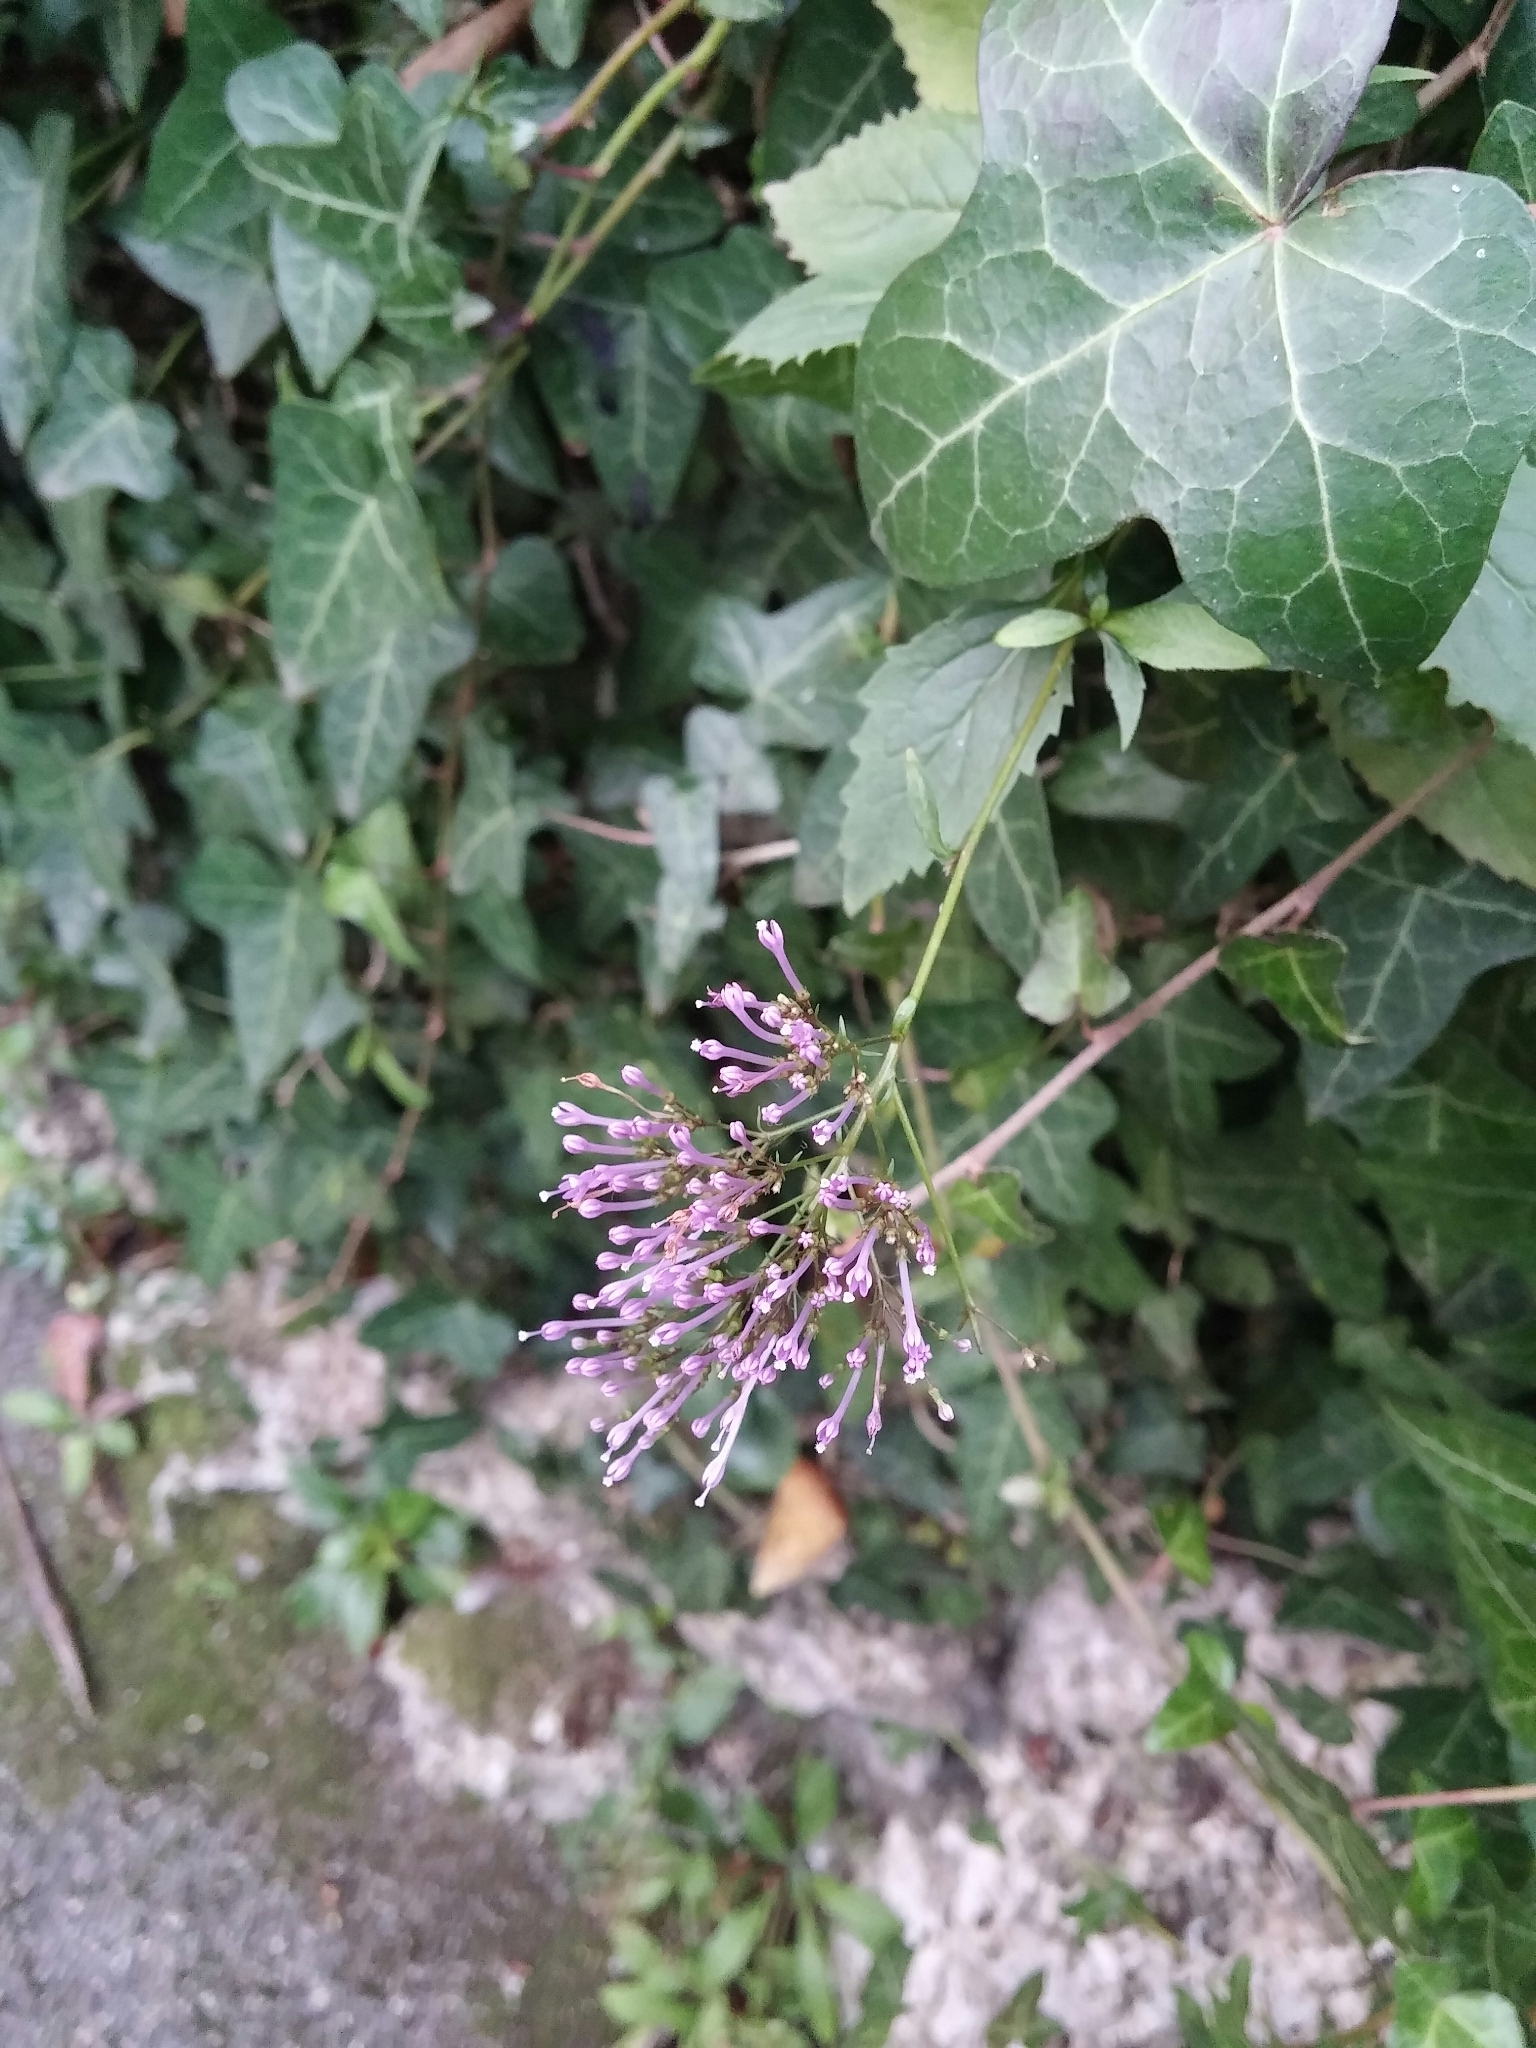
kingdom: Plantae
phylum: Tracheophyta
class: Magnoliopsida
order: Asterales
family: Campanulaceae
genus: Trachelium
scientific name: Trachelium caeruleum
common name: Throatwort
